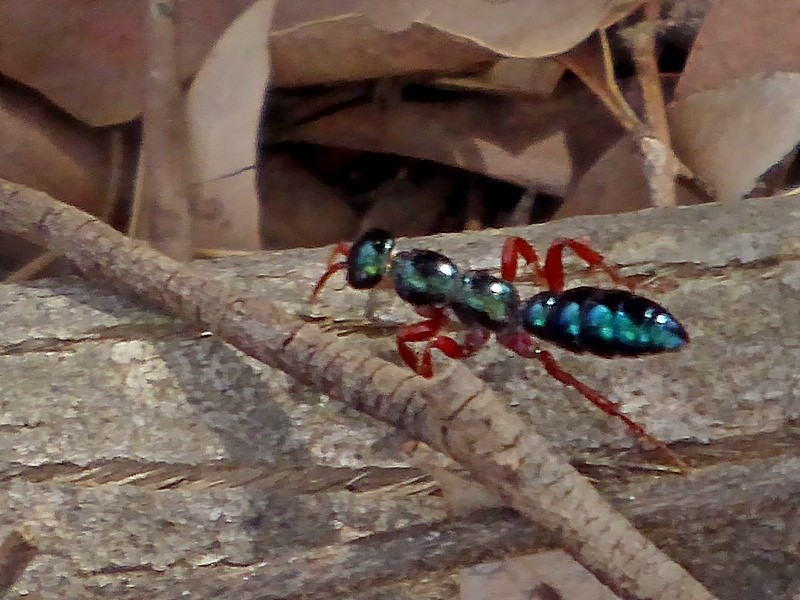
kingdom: Animalia
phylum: Arthropoda
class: Insecta
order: Hymenoptera
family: Tiphiidae
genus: Diamma
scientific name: Diamma
